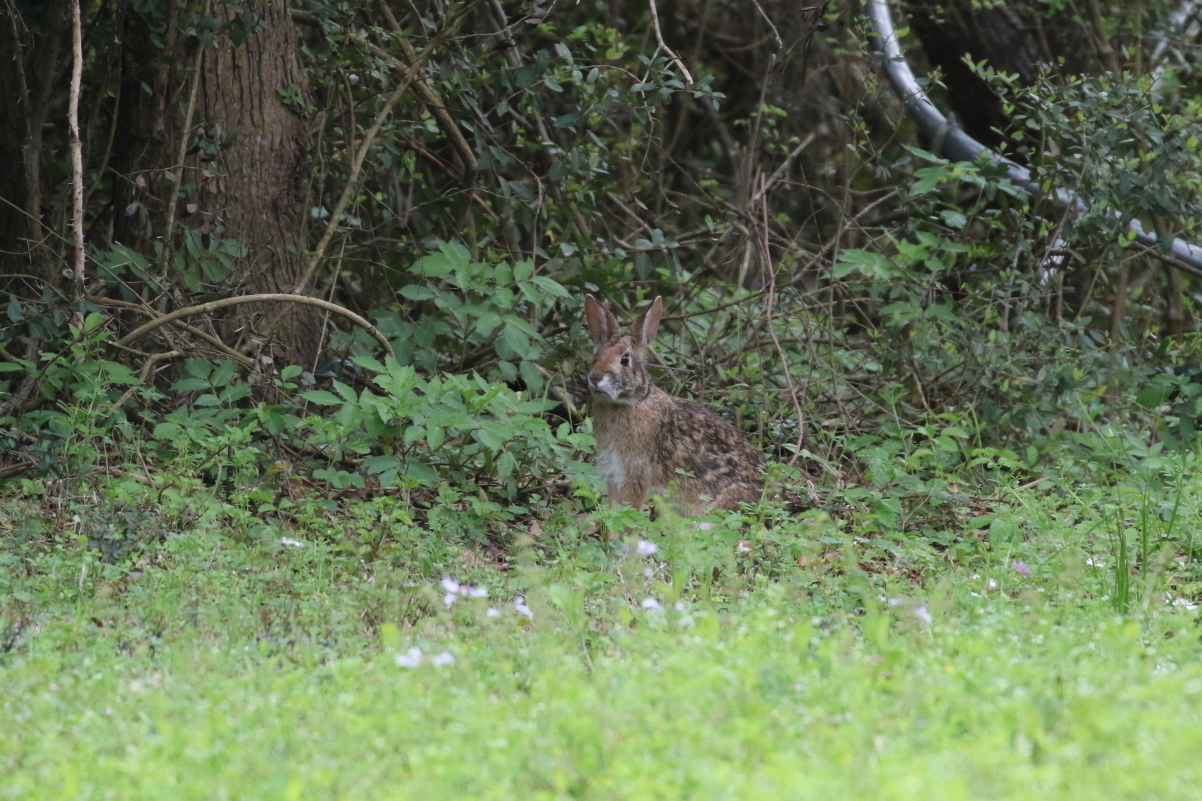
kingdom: Animalia
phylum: Chordata
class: Mammalia
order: Lagomorpha
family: Leporidae
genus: Sylvilagus
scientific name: Sylvilagus aquaticus
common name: Swamp rabbit
